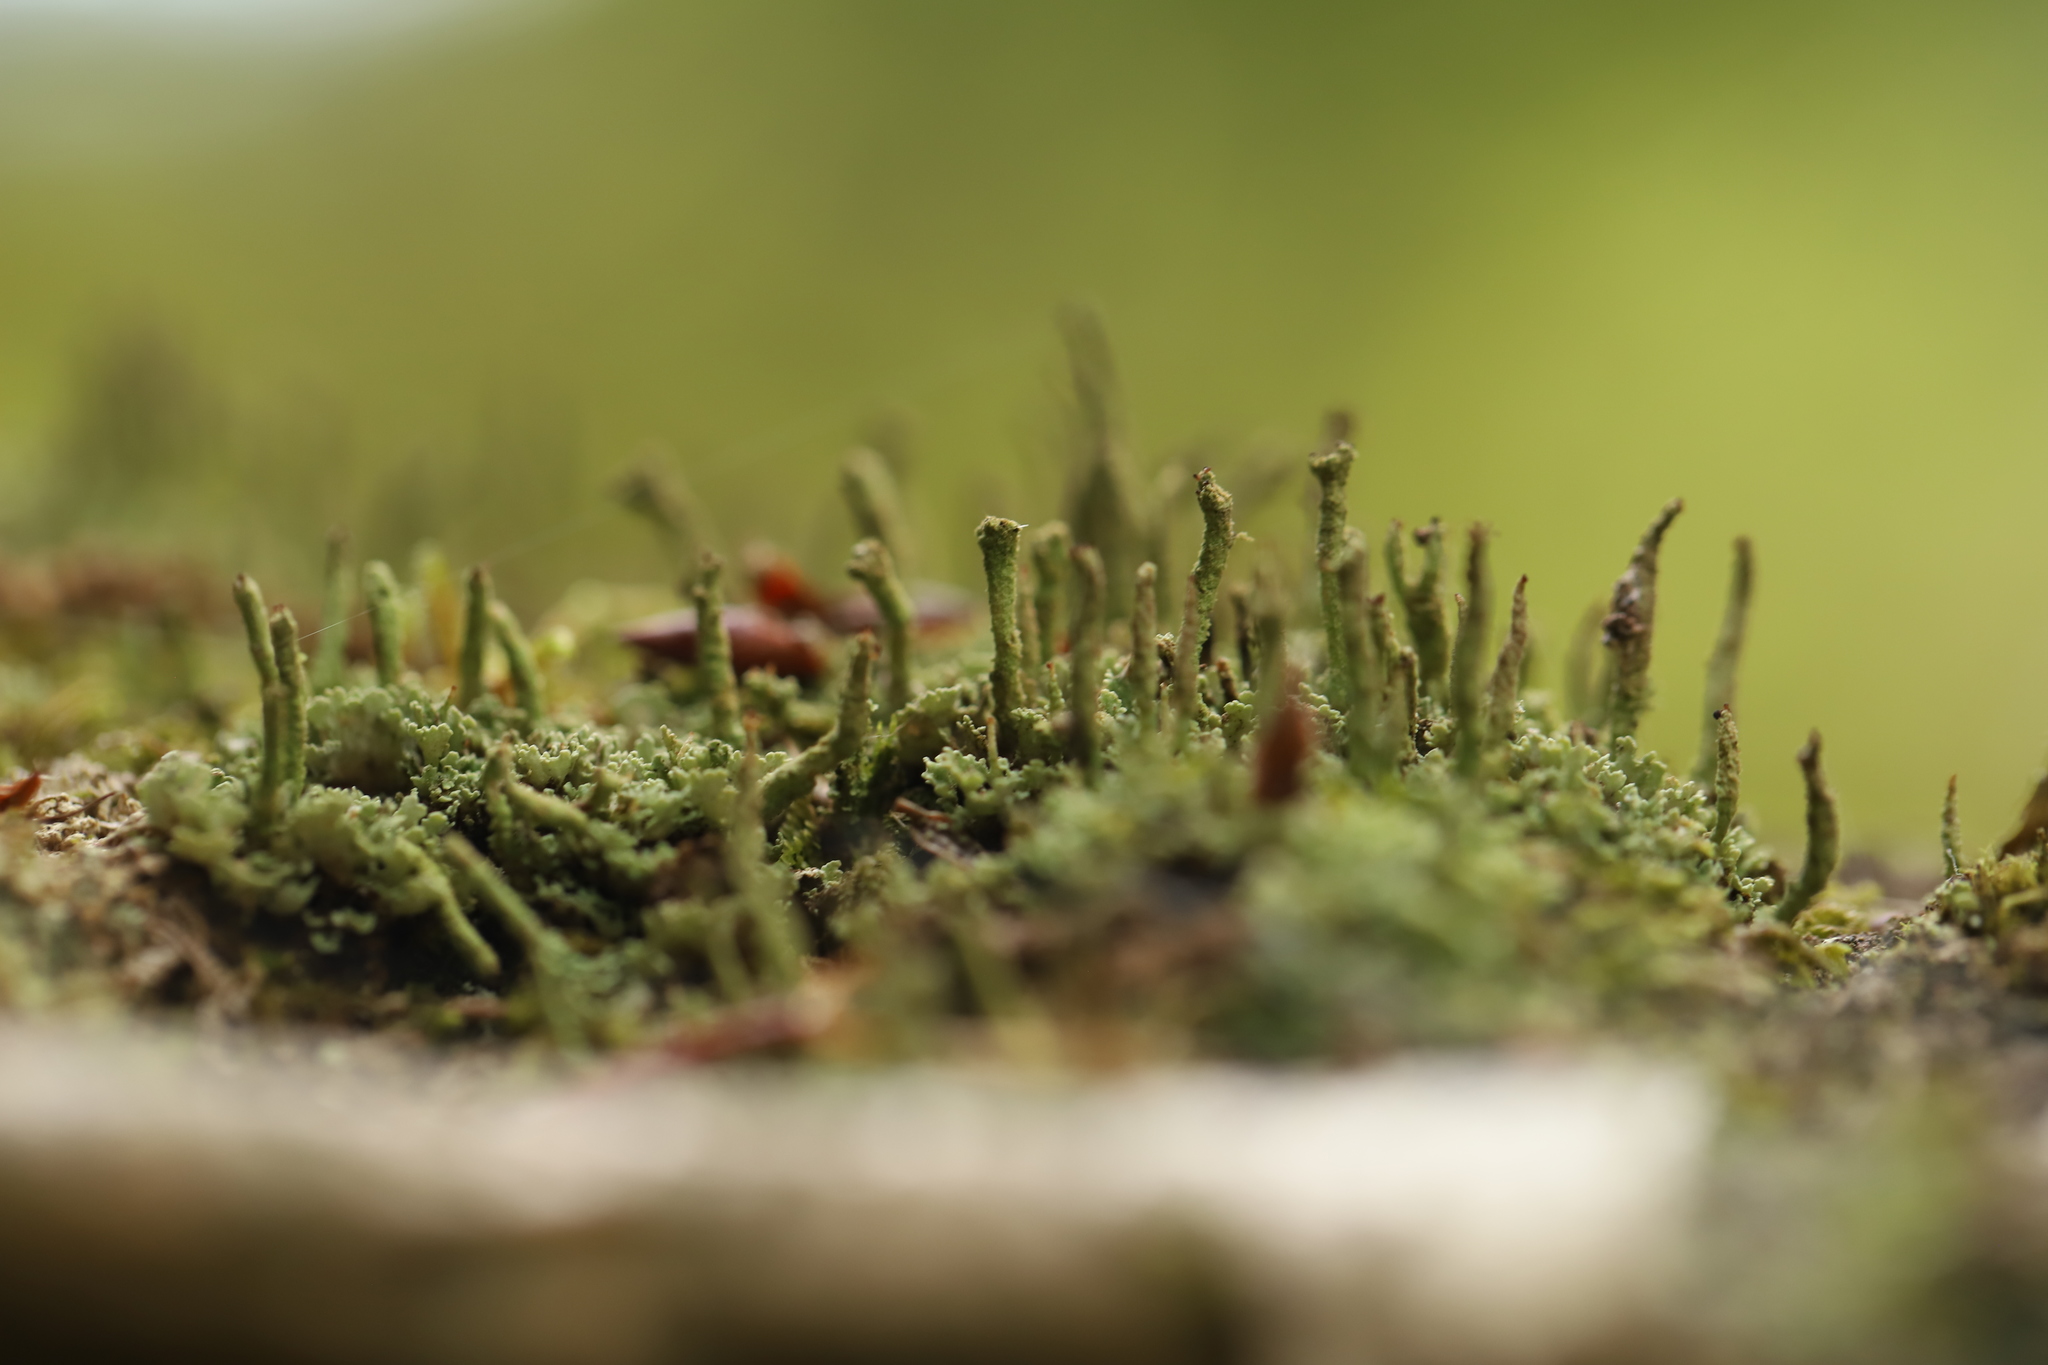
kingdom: Fungi
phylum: Ascomycota
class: Lecanoromycetes
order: Lecanorales
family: Cladoniaceae
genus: Cladonia
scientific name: Cladonia coniocraea
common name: Common powderhorn
